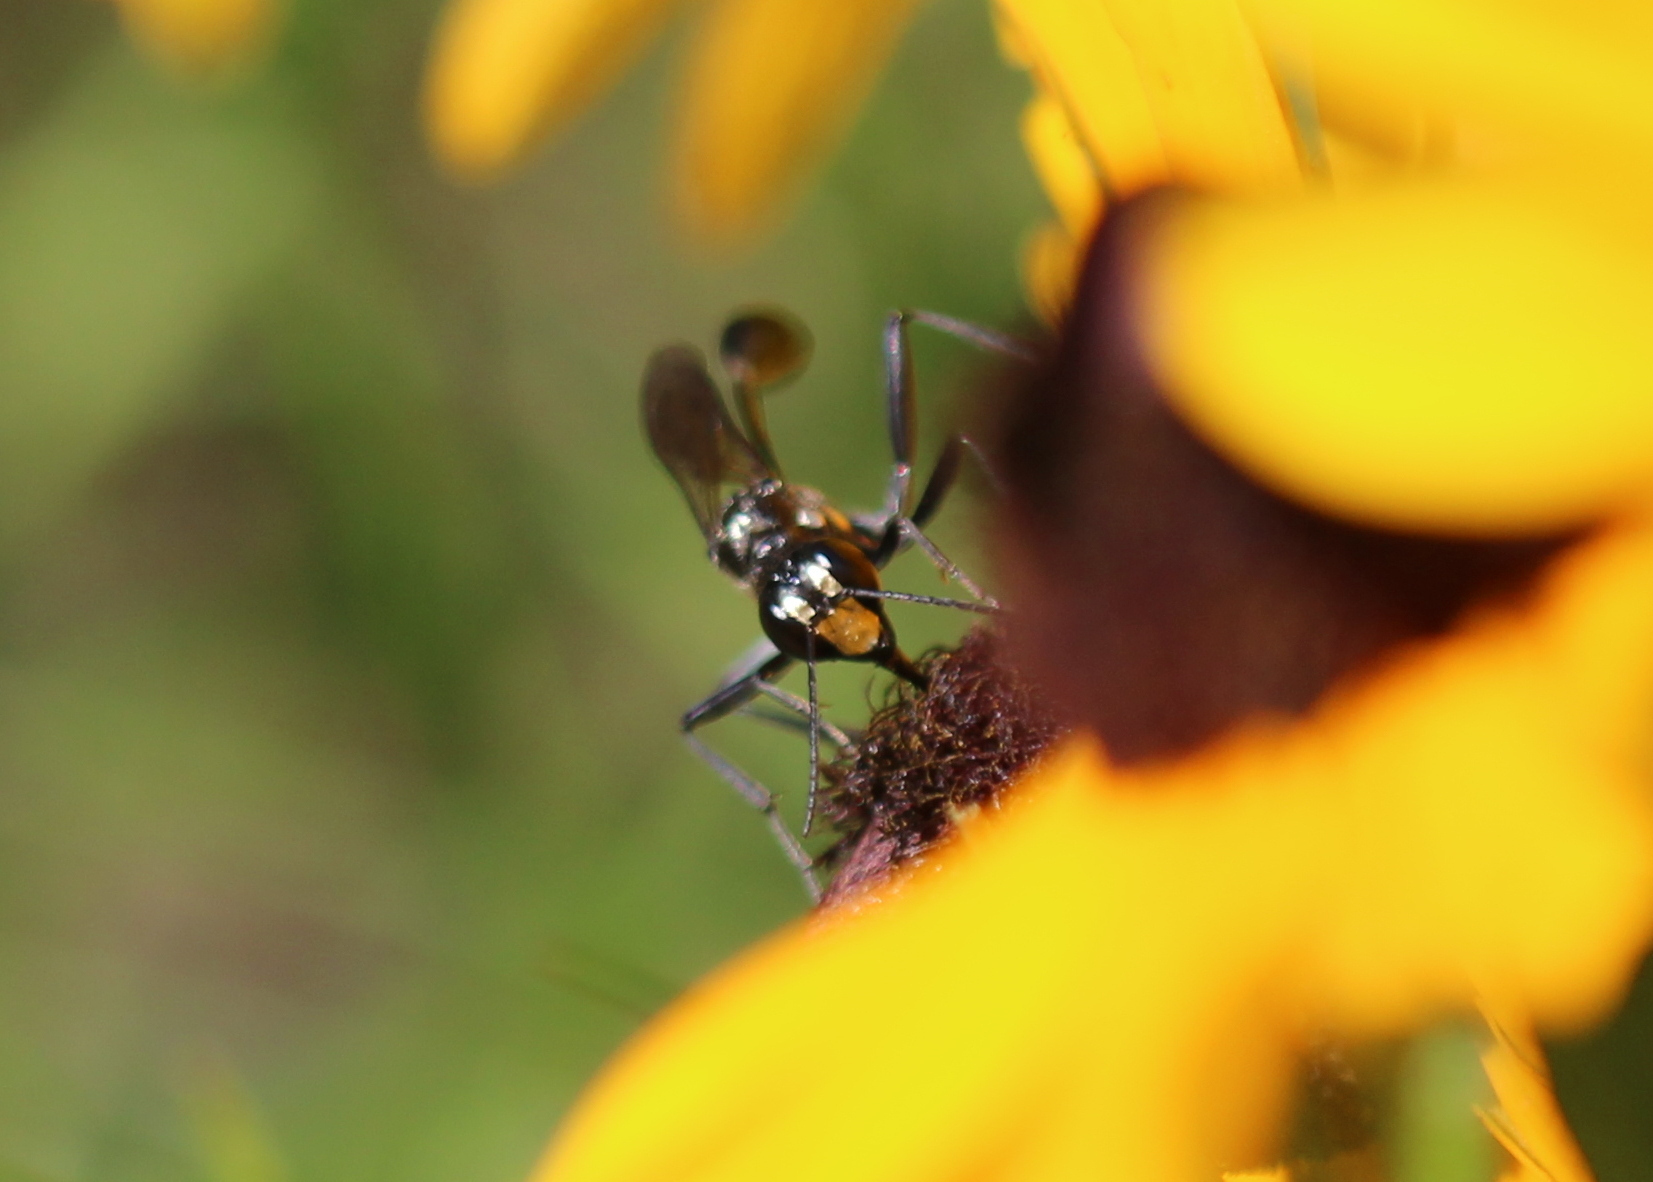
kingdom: Animalia
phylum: Arthropoda
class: Insecta
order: Hymenoptera
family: Sphecidae
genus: Eremnophila
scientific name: Eremnophila aureonotata
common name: Gold-marked thread-waisted wasp
